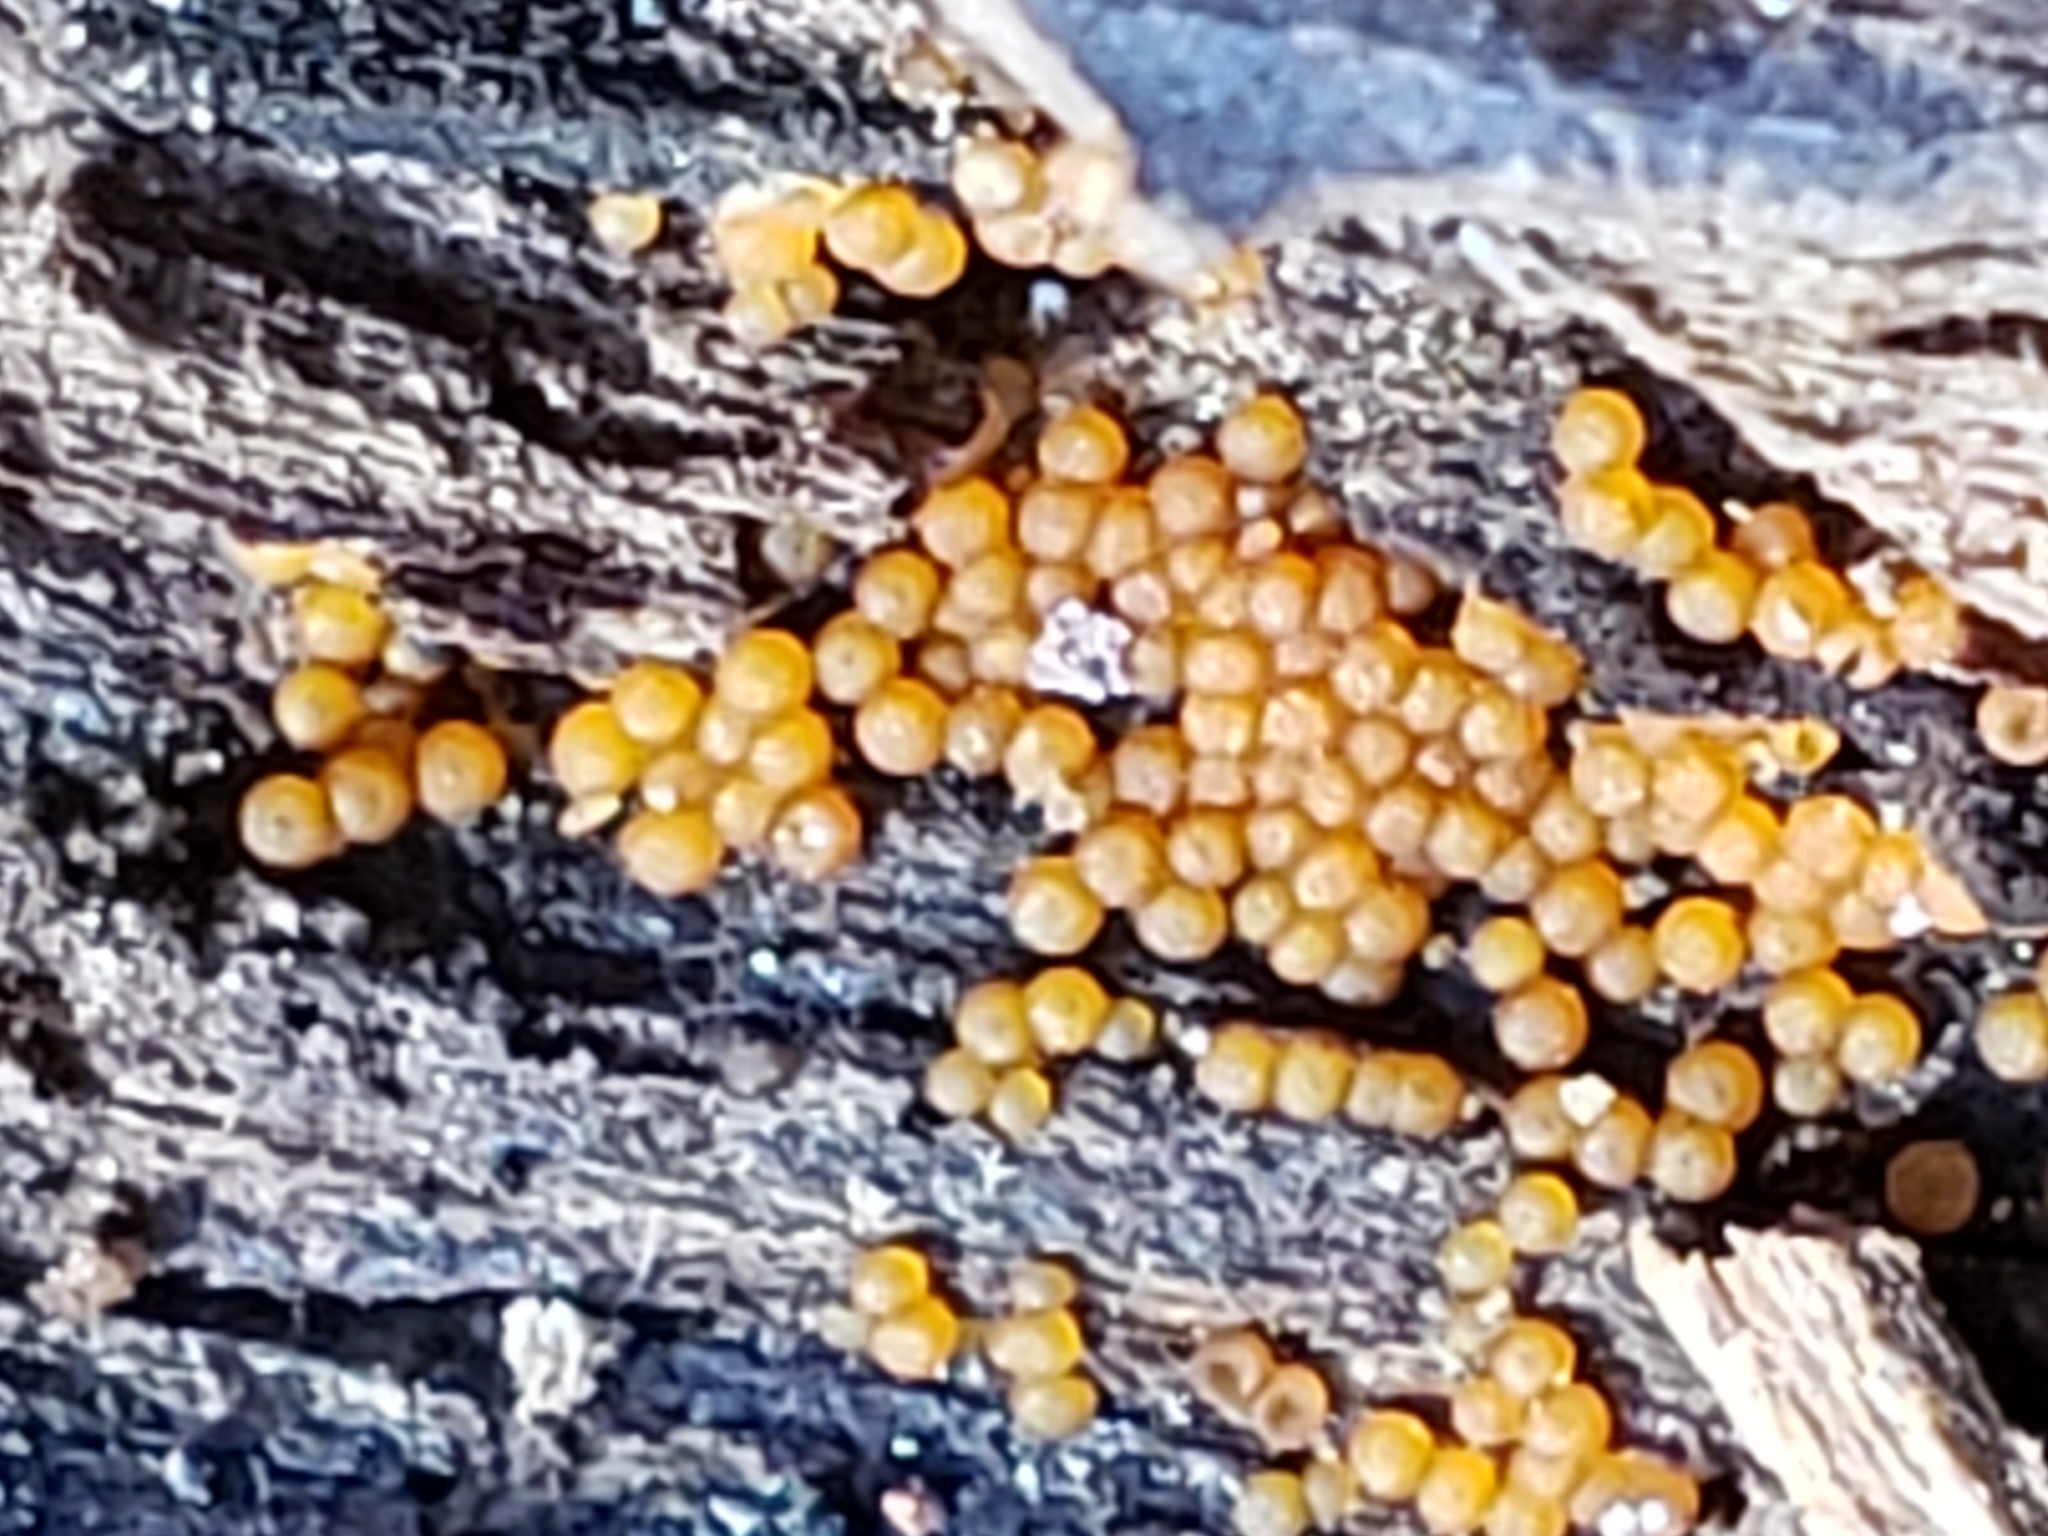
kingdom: Protozoa
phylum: Mycetozoa
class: Myxomycetes
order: Physarales
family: Physaraceae
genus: Leocarpus
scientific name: Leocarpus fragilis
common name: Insect-egg slime
